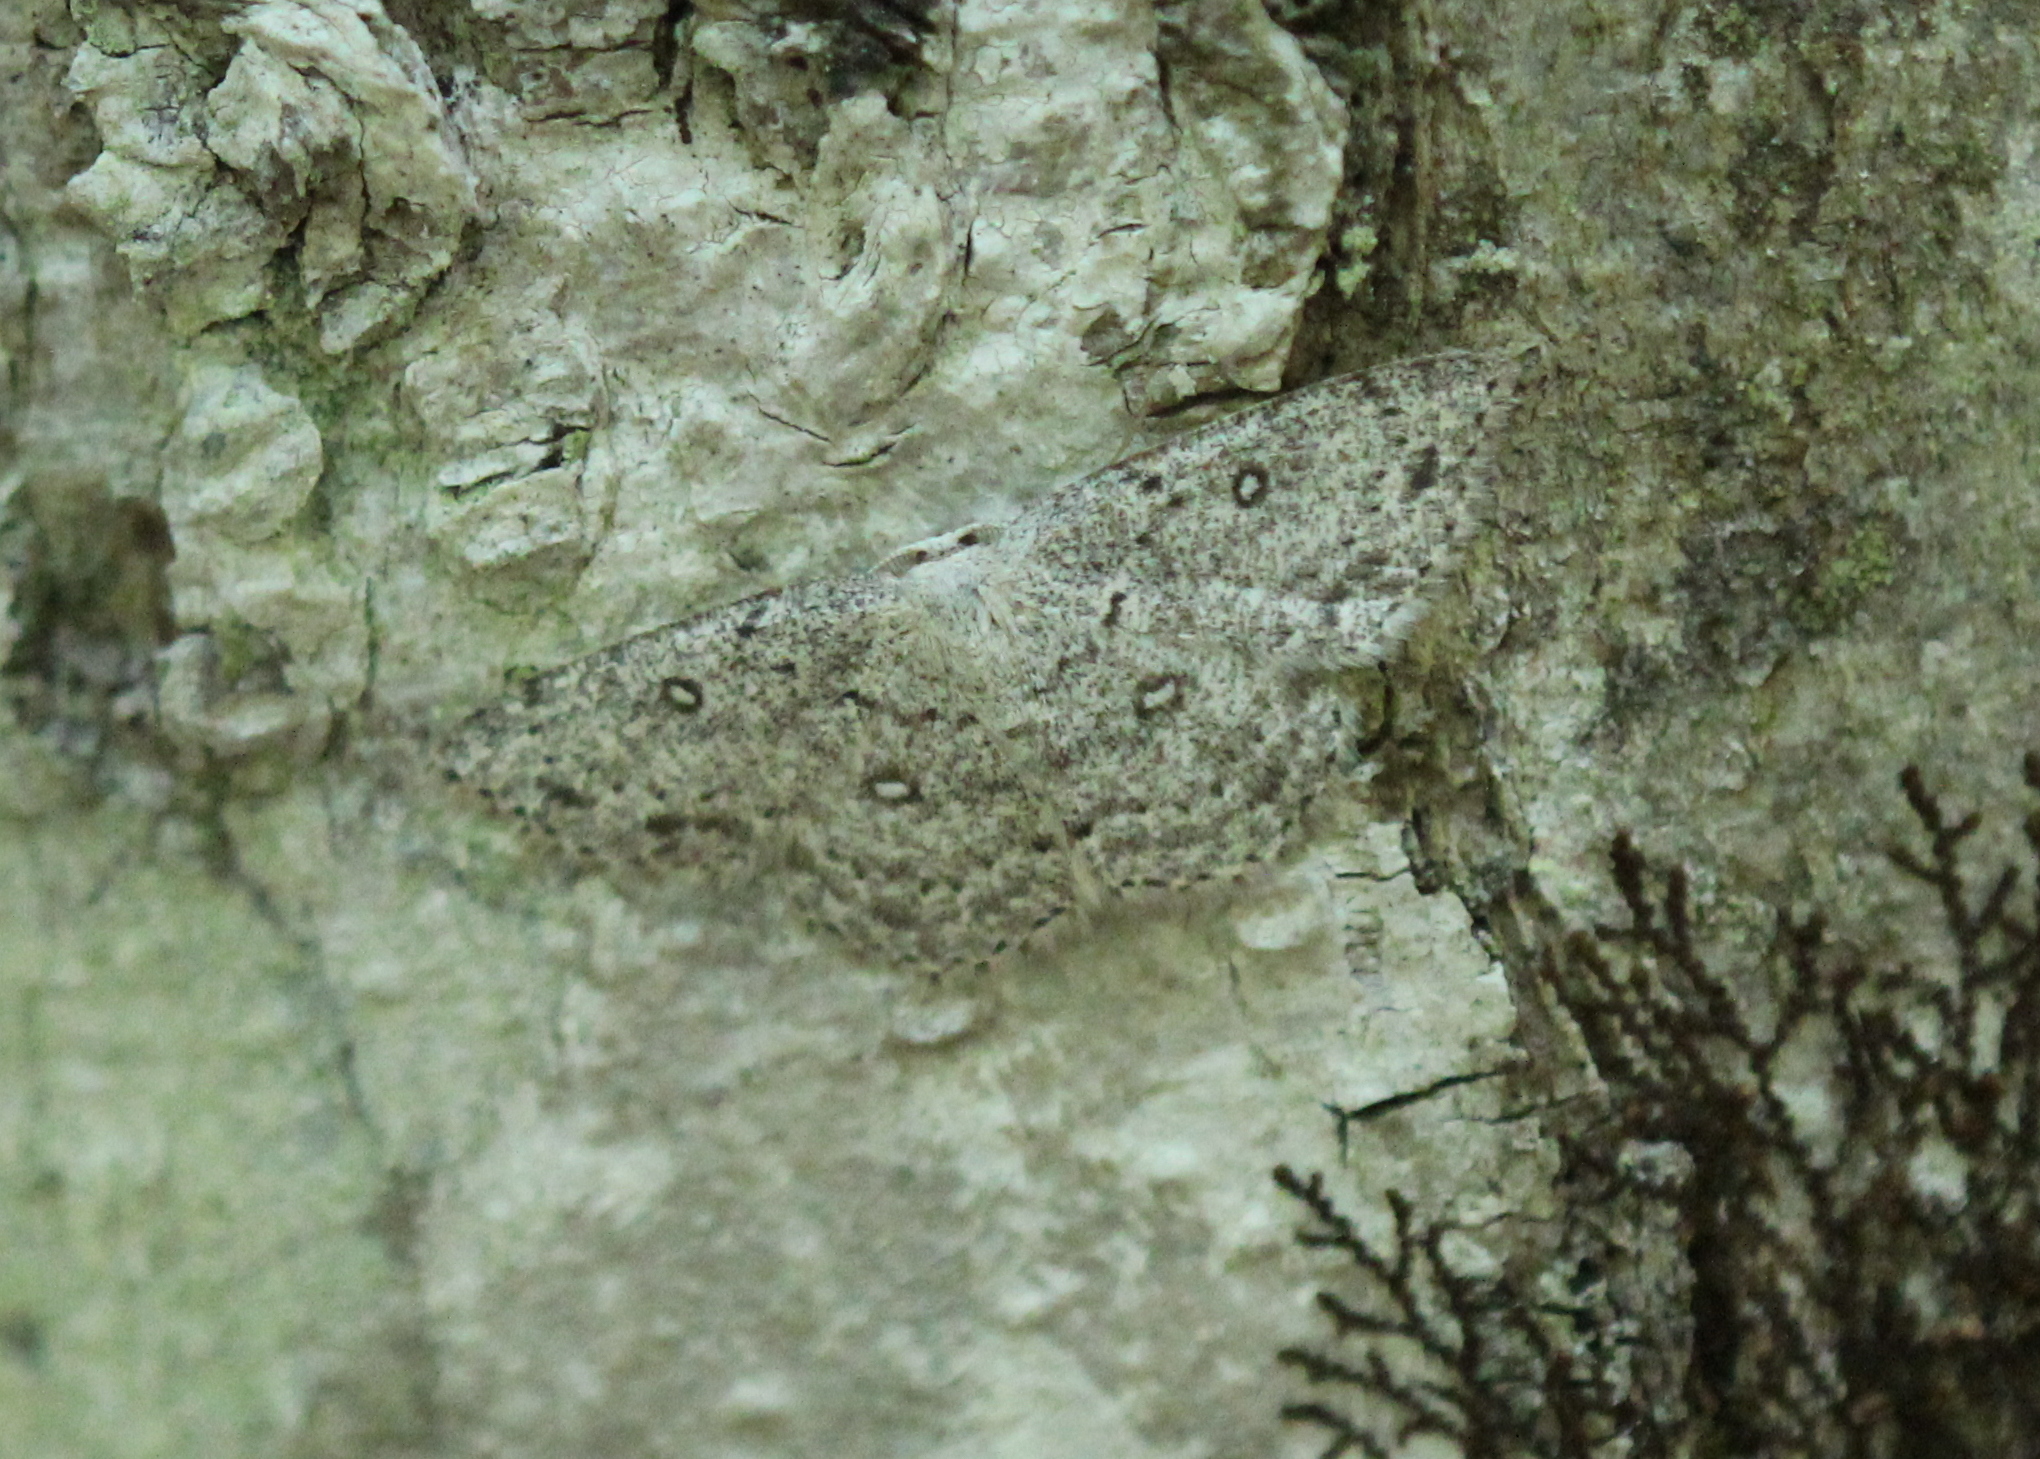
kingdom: Animalia
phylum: Arthropoda
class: Insecta
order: Lepidoptera
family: Geometridae
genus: Cyclophora
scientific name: Cyclophora pendulinaria
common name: Sweet fern geometer
